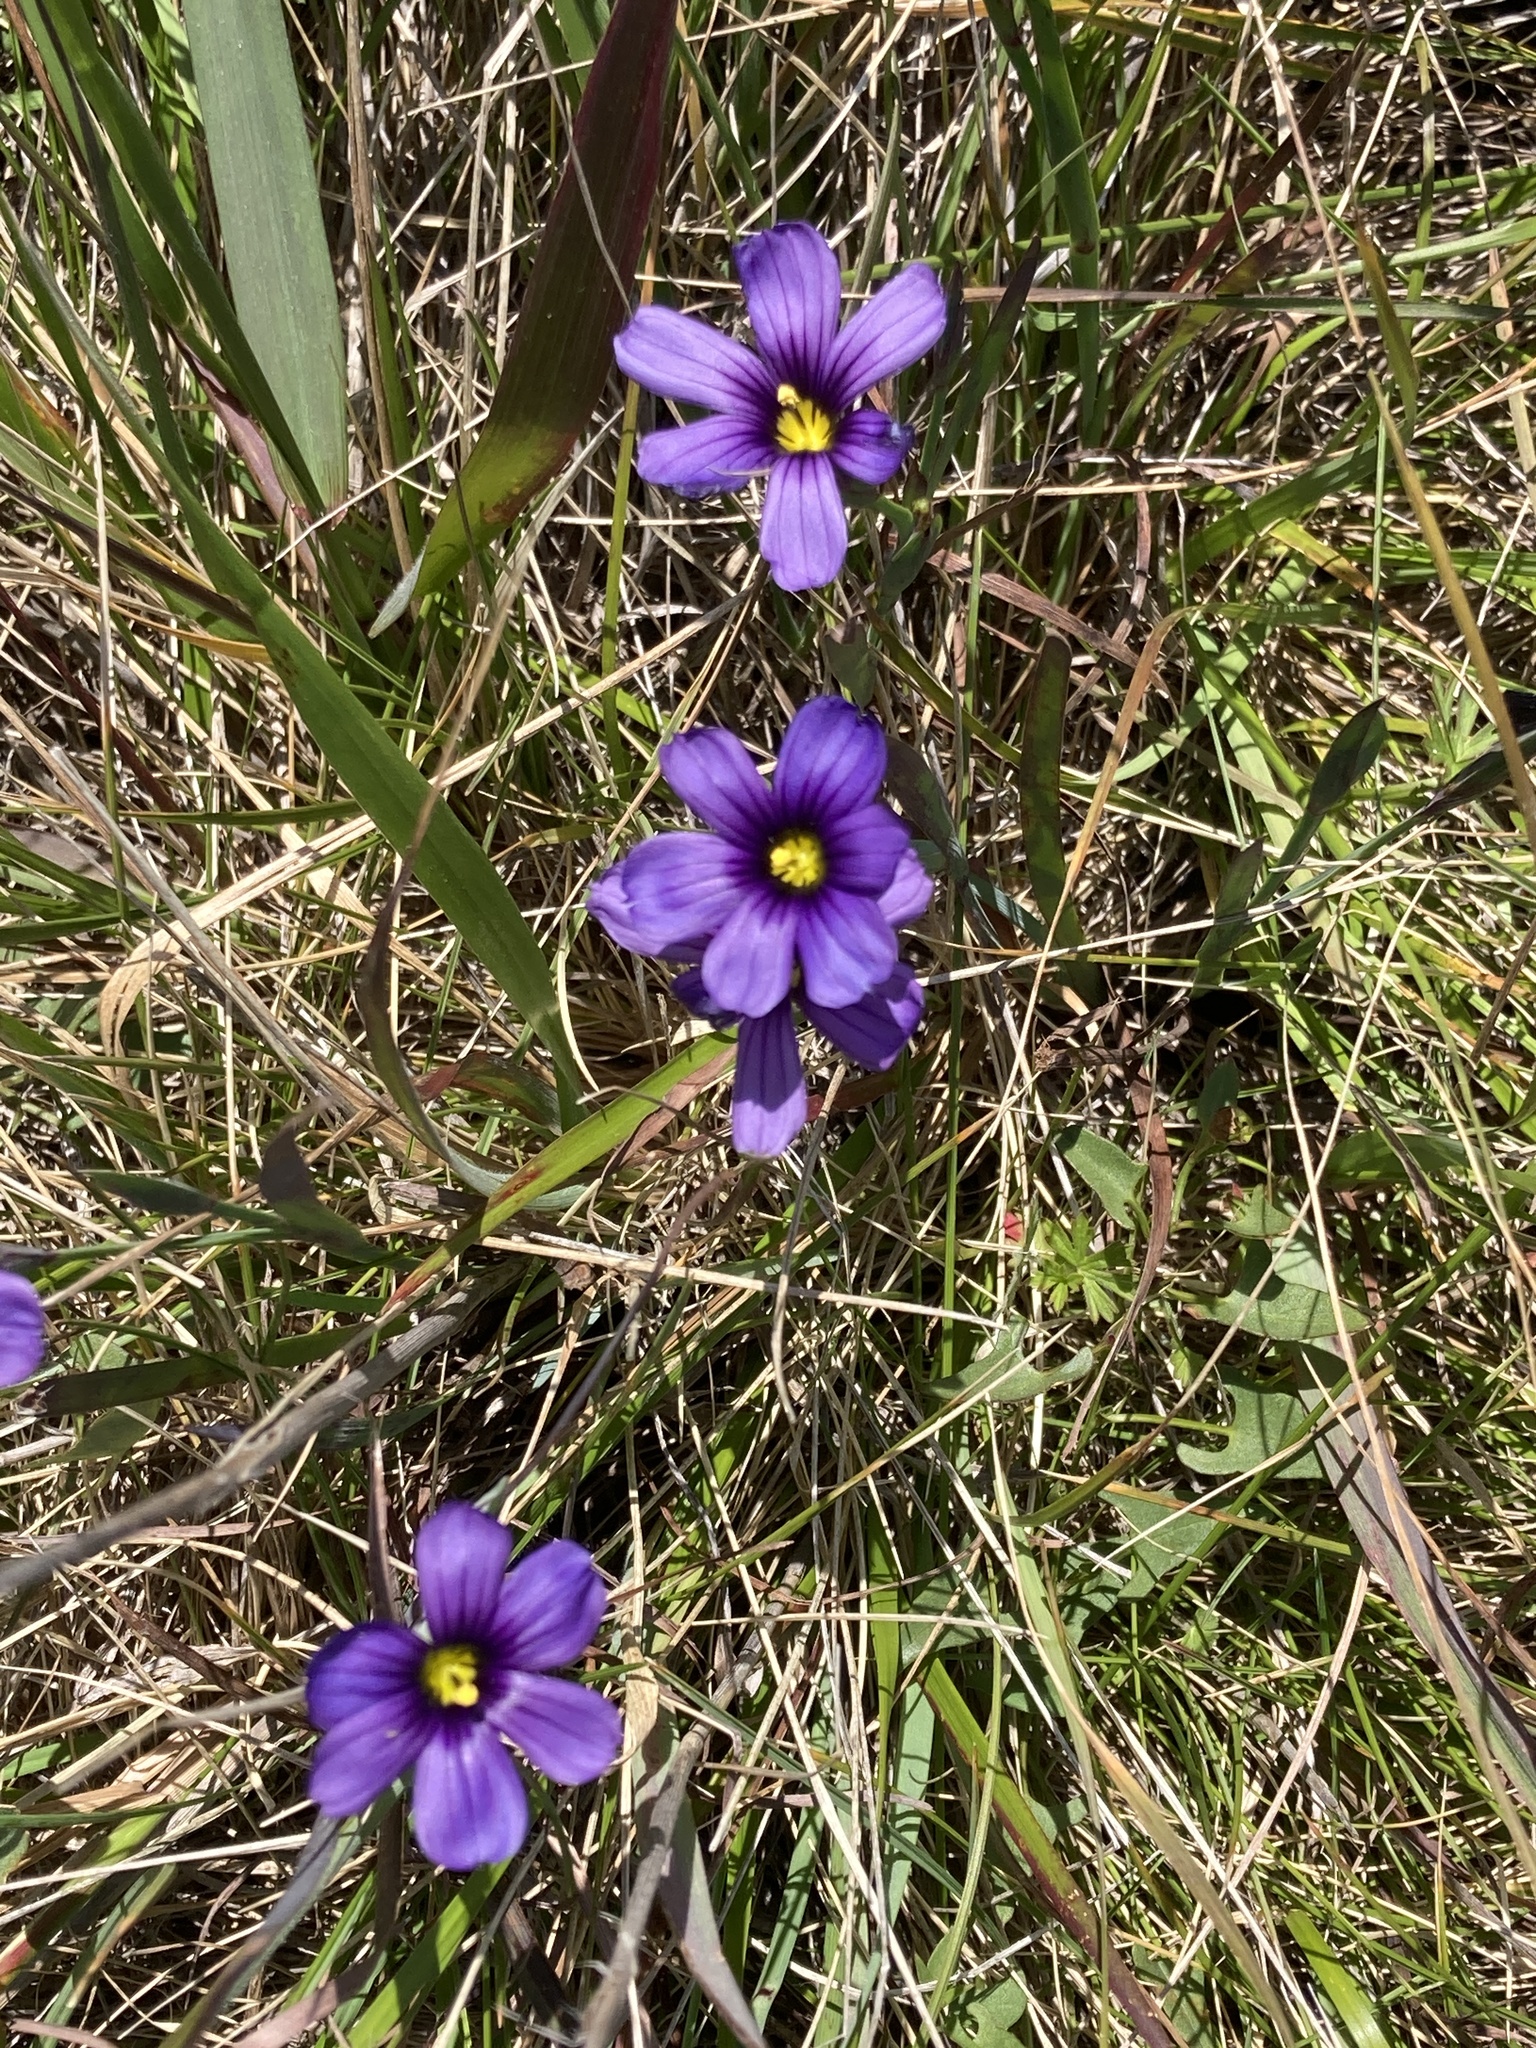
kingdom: Plantae
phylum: Tracheophyta
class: Liliopsida
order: Asparagales
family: Iridaceae
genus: Sisyrinchium
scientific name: Sisyrinchium bellum
